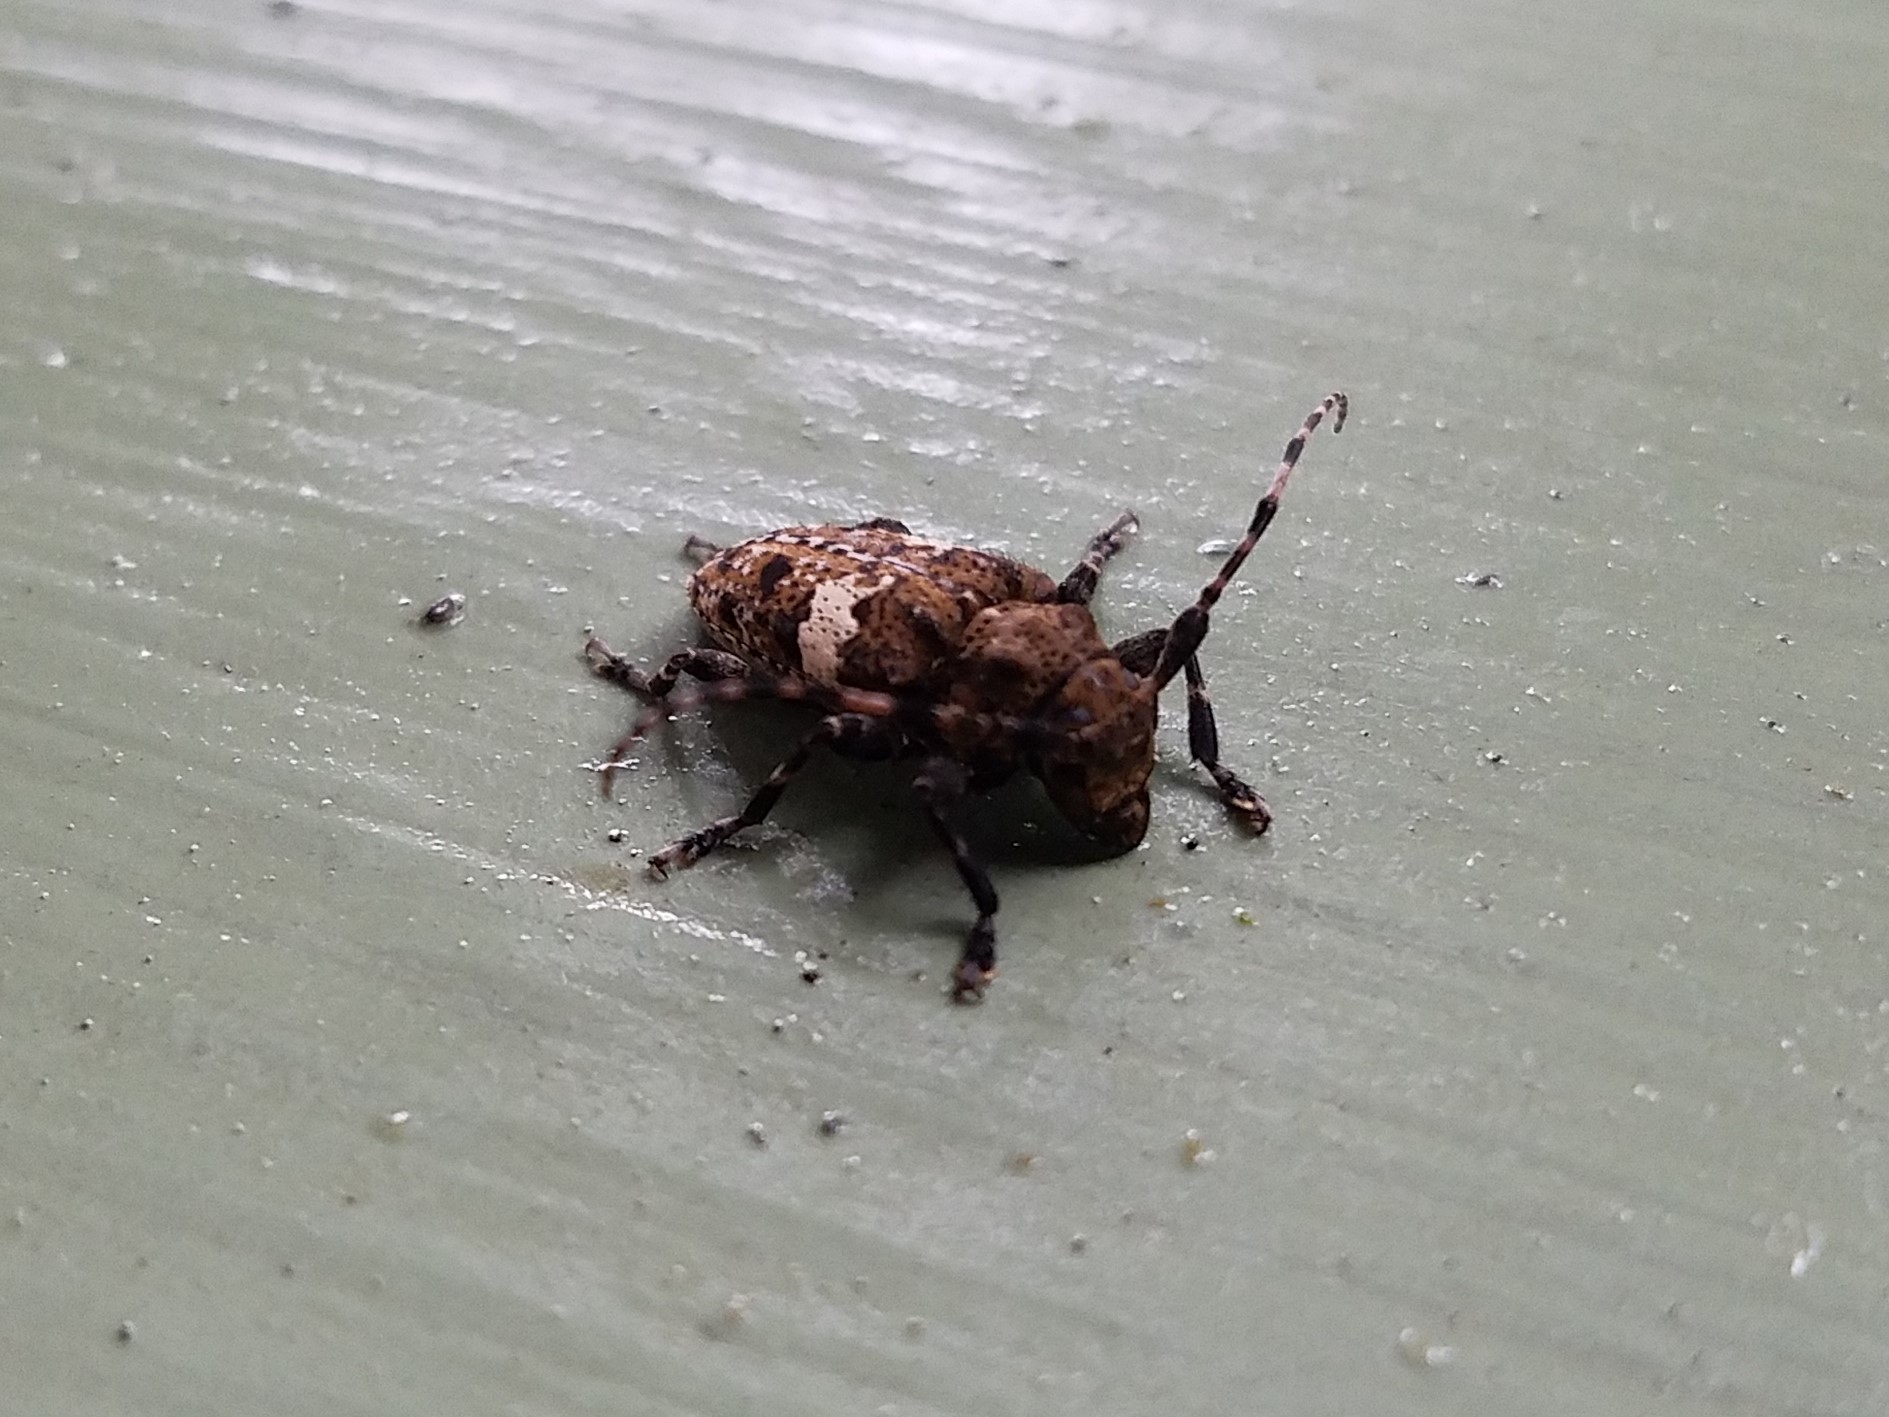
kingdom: Animalia
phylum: Arthropoda
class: Insecta
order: Coleoptera
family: Cerambycidae
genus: Acanthoderes
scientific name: Acanthoderes quadrigibba
